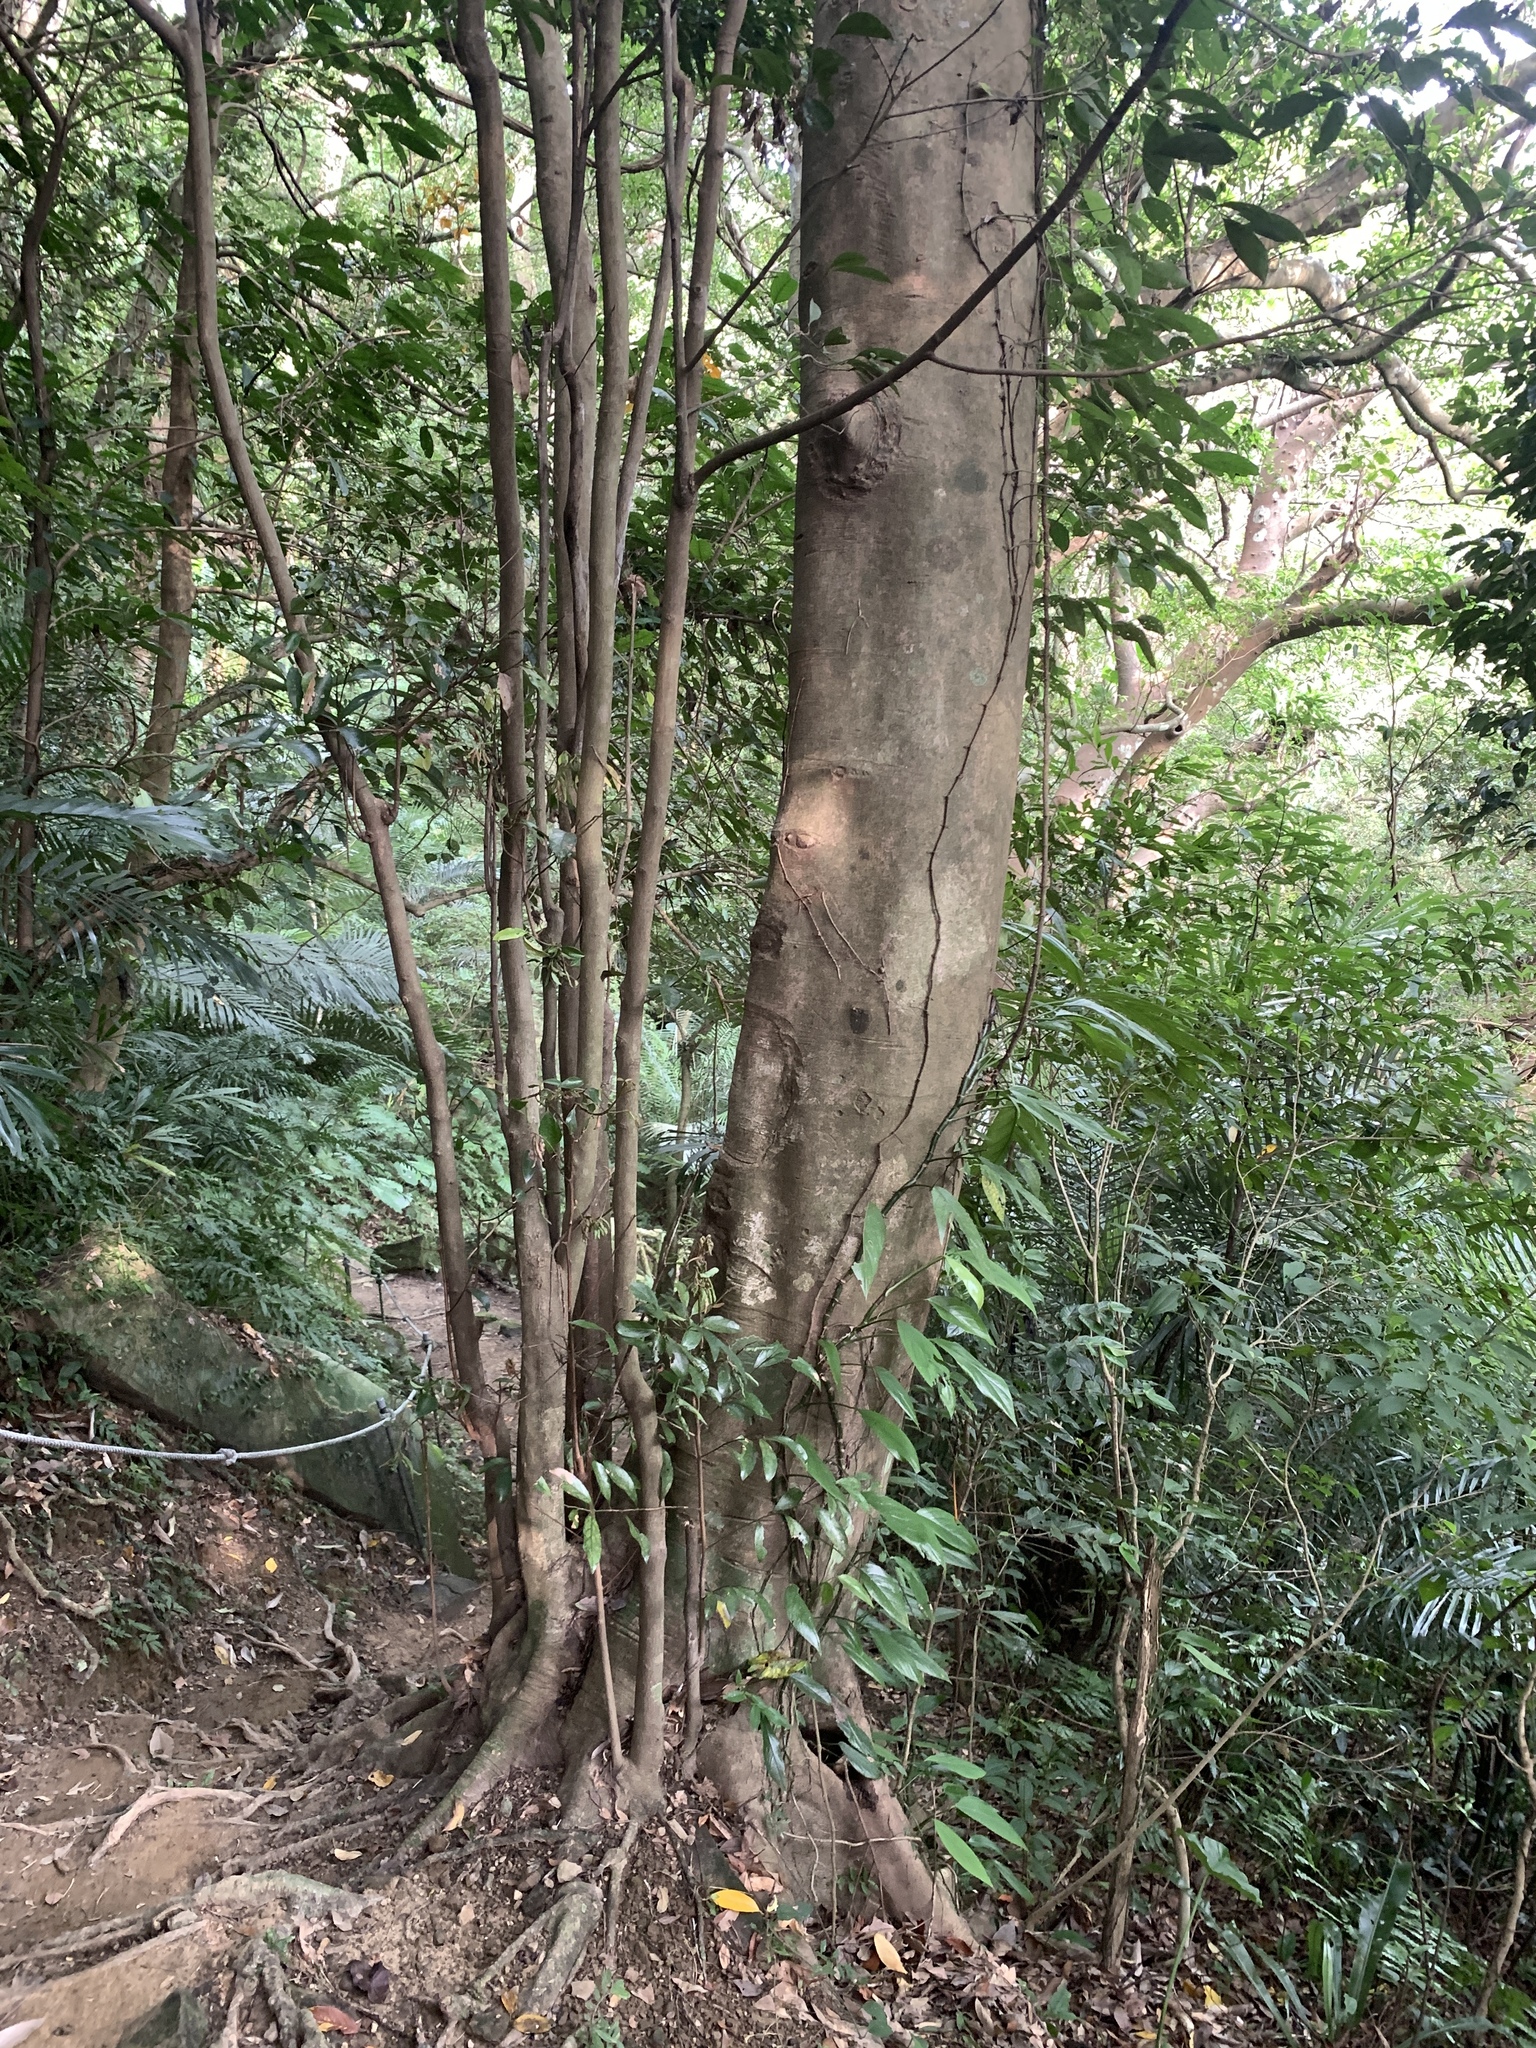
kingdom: Plantae
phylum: Tracheophyta
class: Magnoliopsida
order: Laurales
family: Lauraceae
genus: Cryptocarya
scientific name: Cryptocarya concinna
